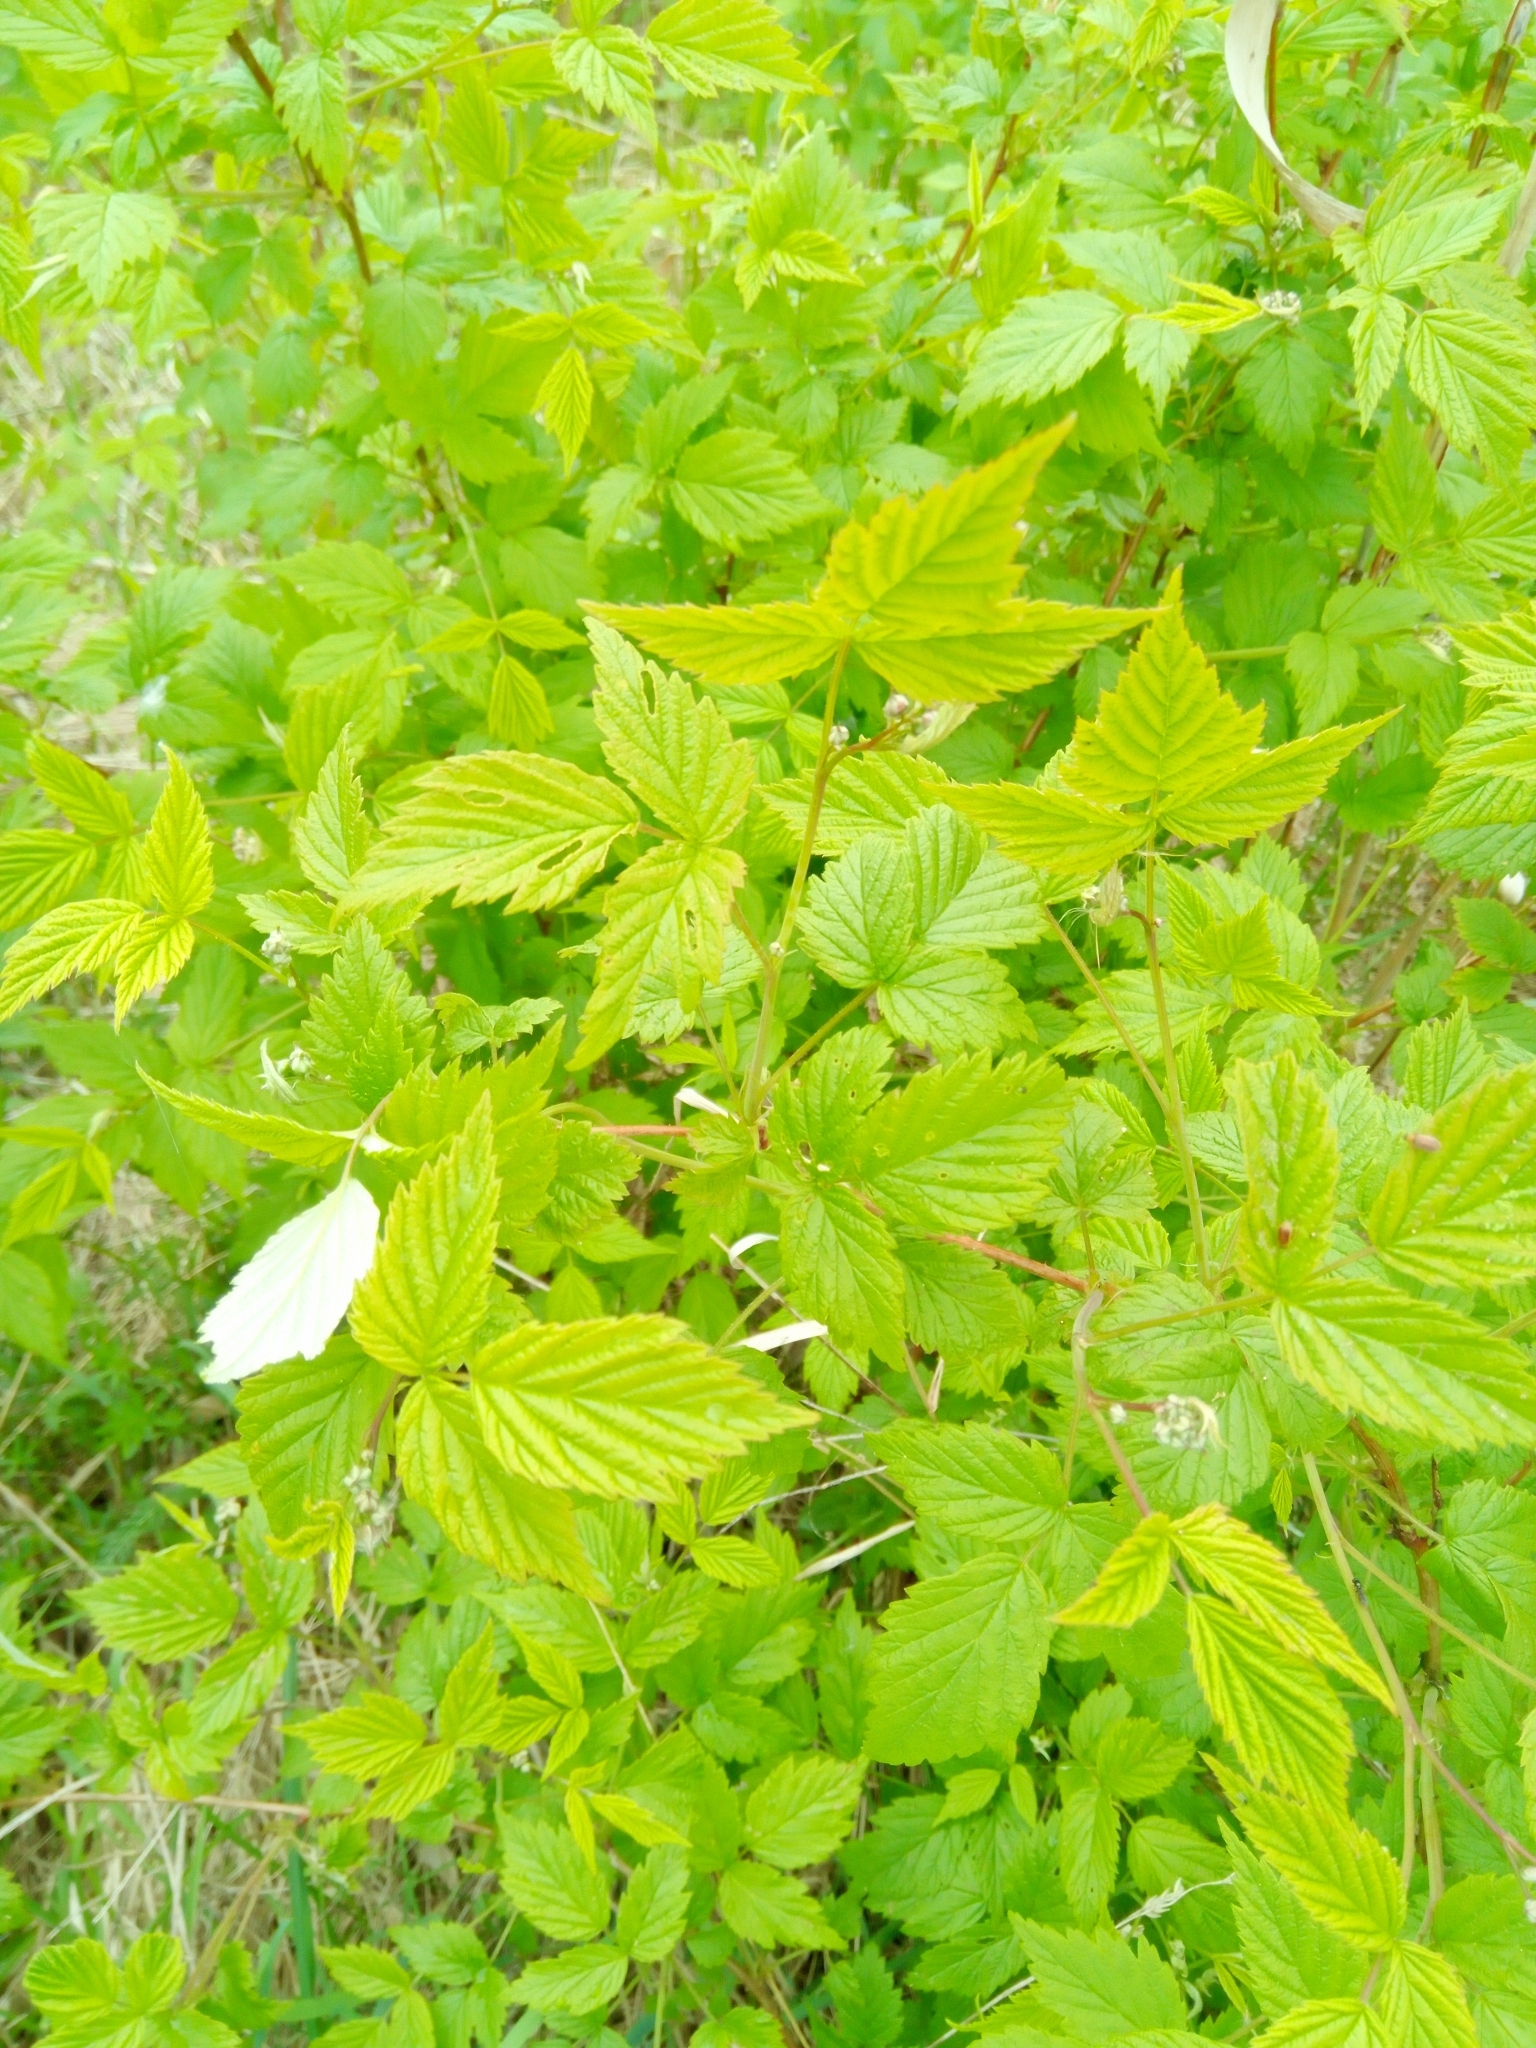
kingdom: Plantae
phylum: Tracheophyta
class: Magnoliopsida
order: Rosales
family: Rosaceae
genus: Rubus
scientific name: Rubus idaeus
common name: Raspberry
